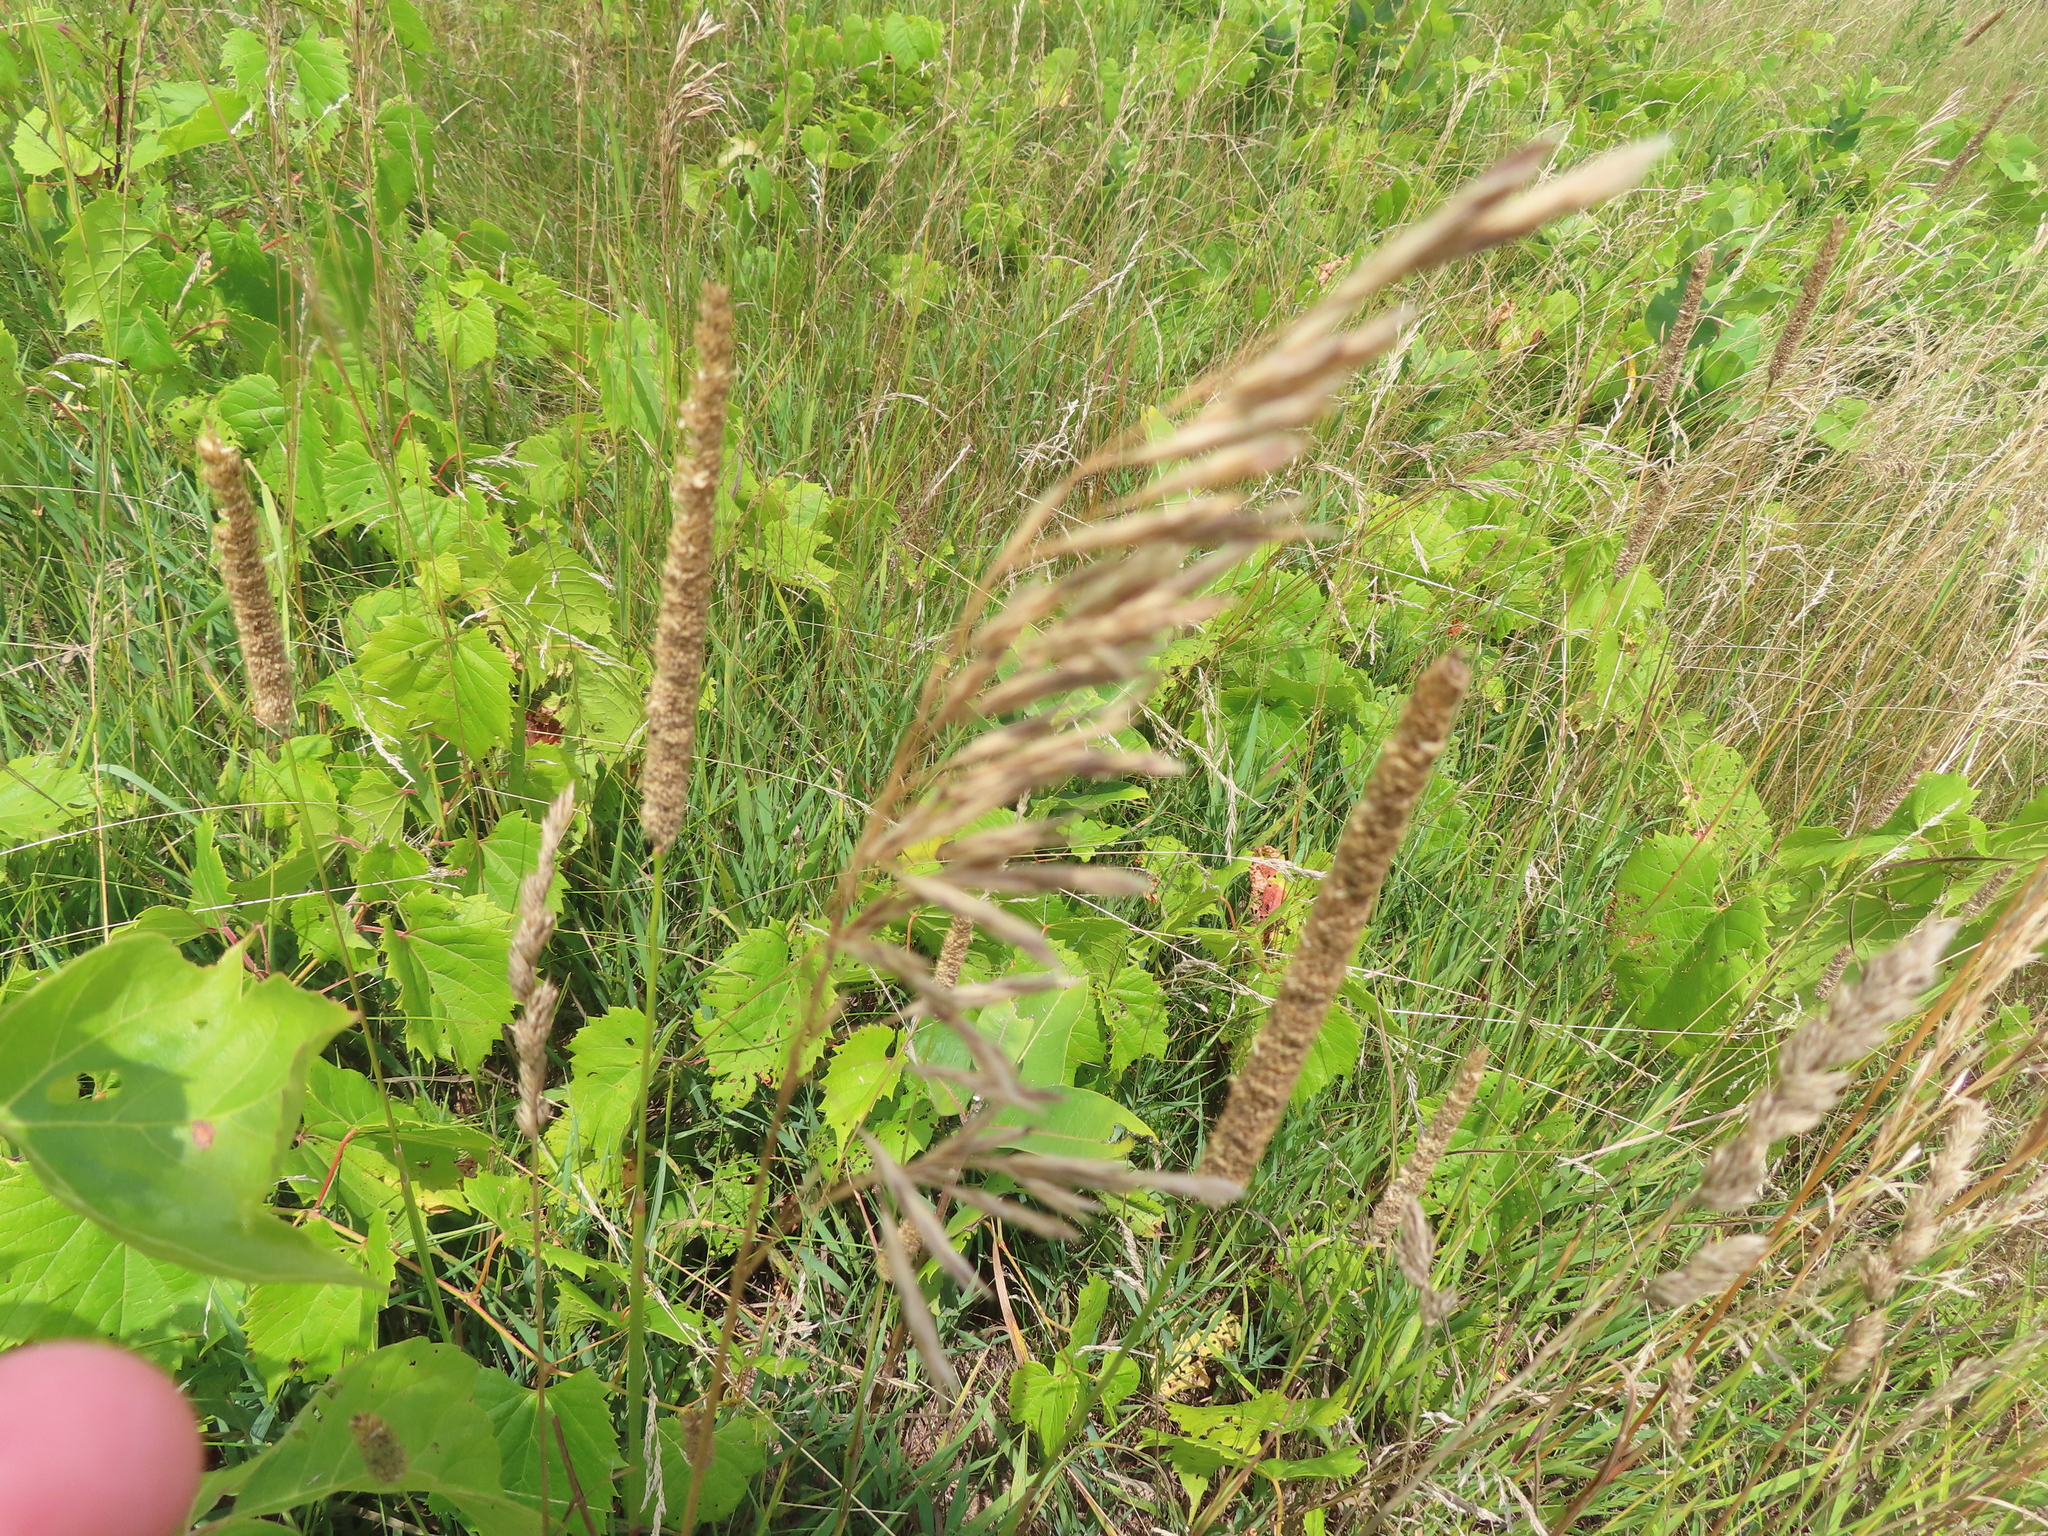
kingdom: Plantae
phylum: Tracheophyta
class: Liliopsida
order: Poales
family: Poaceae
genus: Phleum
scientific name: Phleum pratense
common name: Timothy grass
